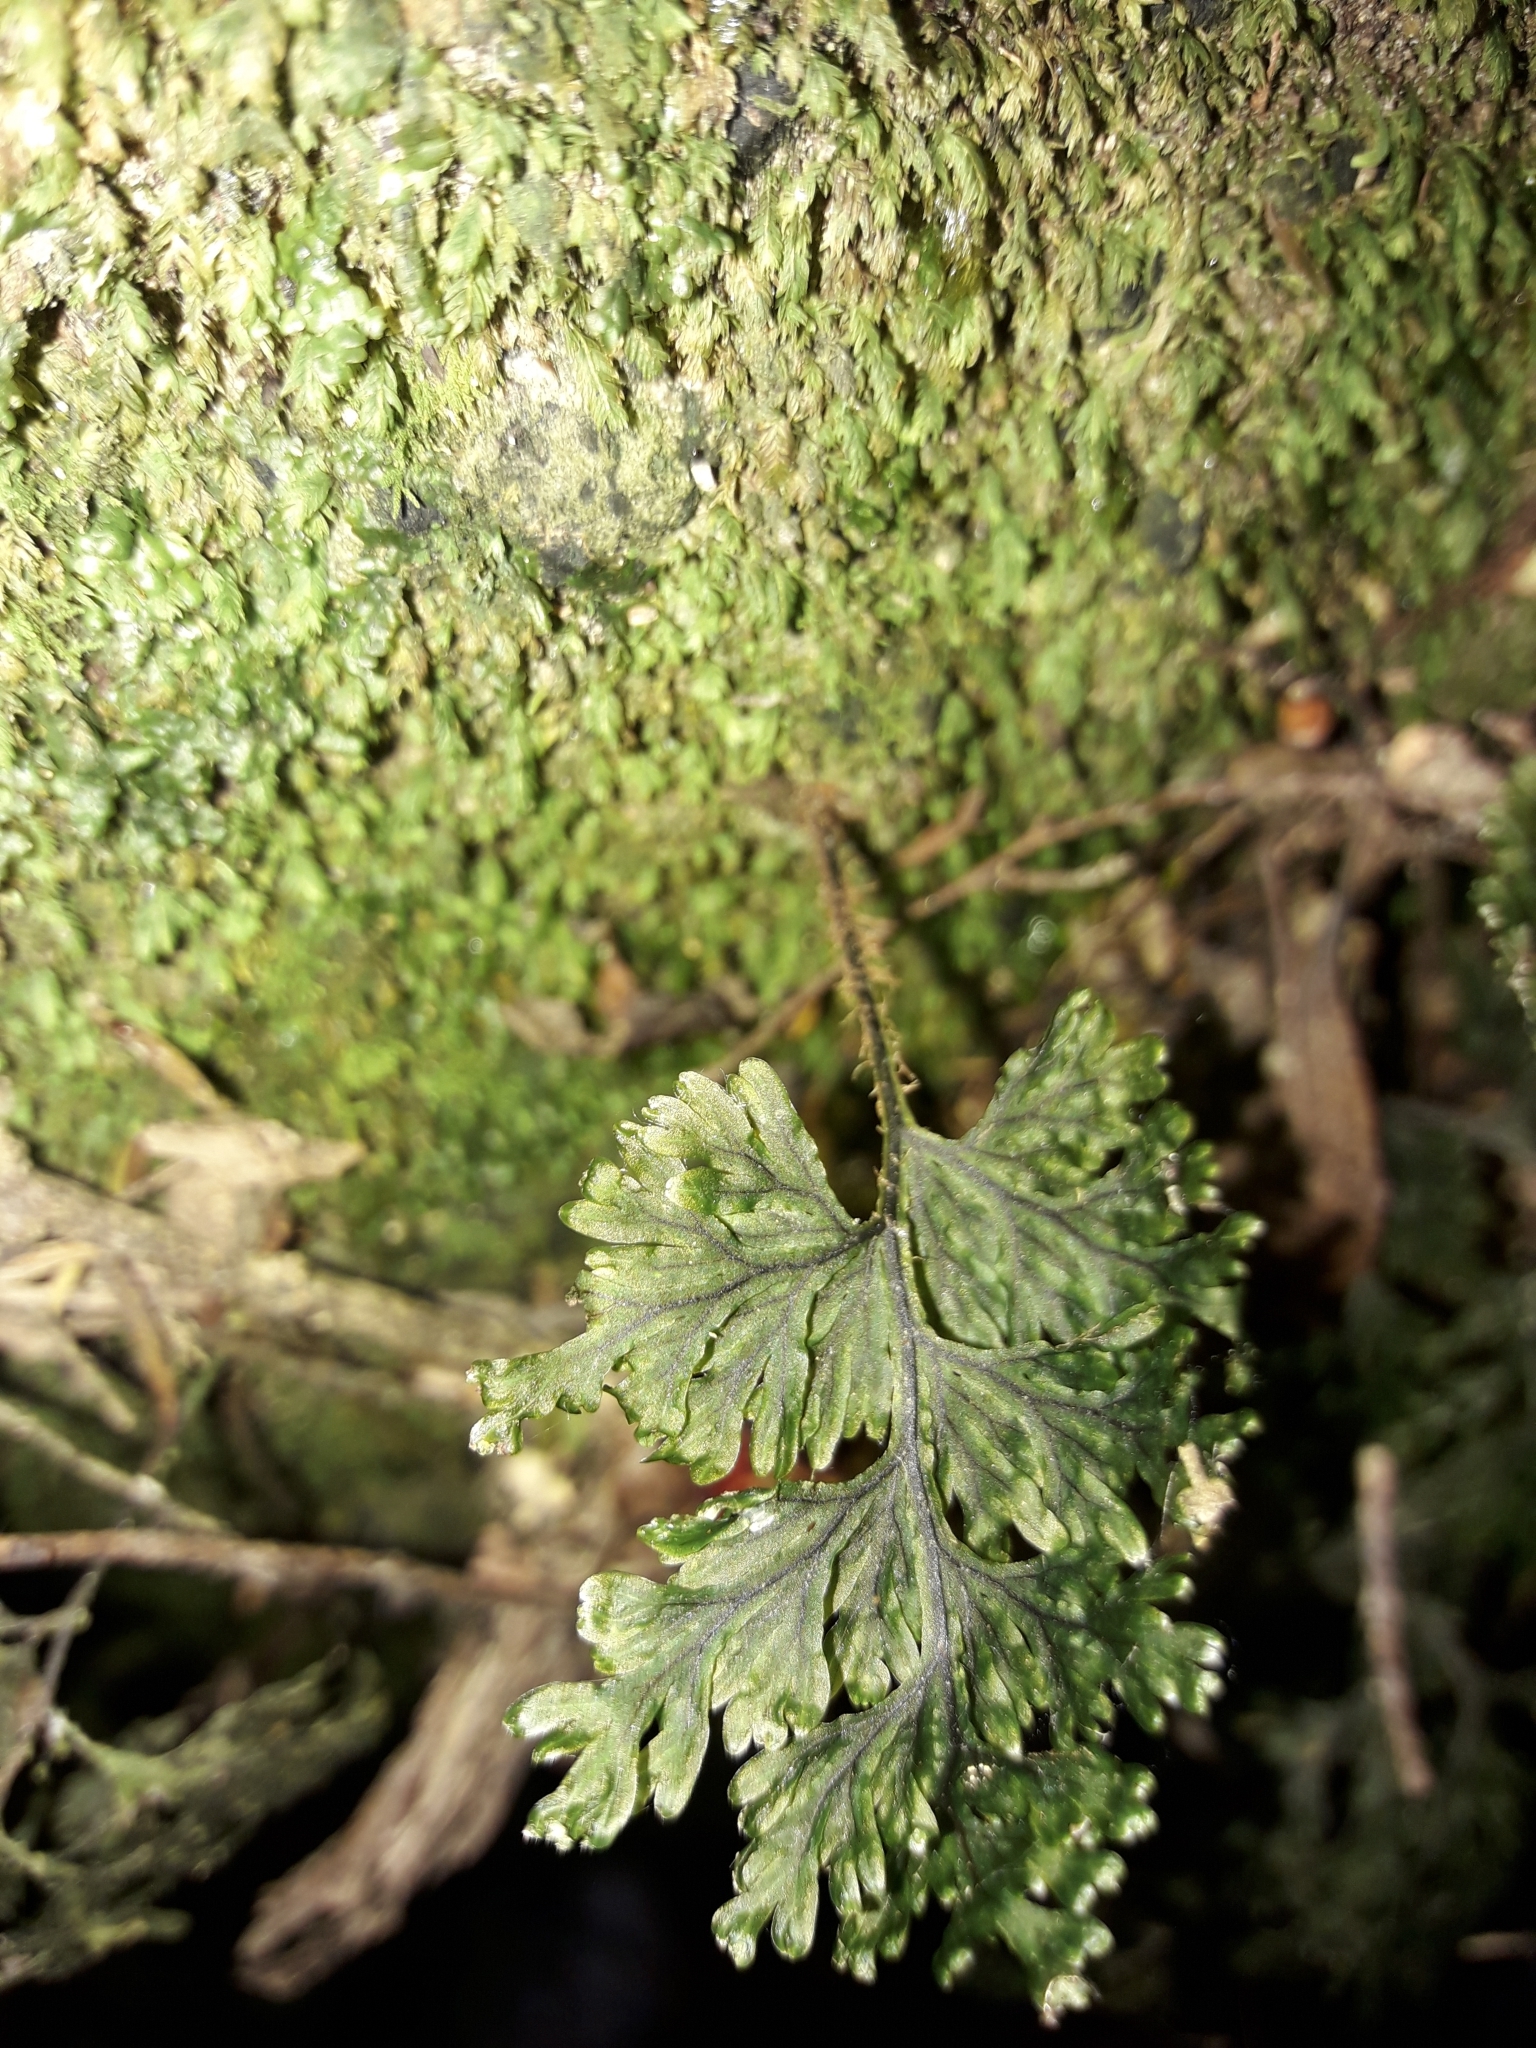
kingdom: Plantae
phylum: Tracheophyta
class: Polypodiopsida
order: Hymenophyllales
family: Hymenophyllaceae
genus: Hymenophyllum
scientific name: Hymenophyllum scabrum
